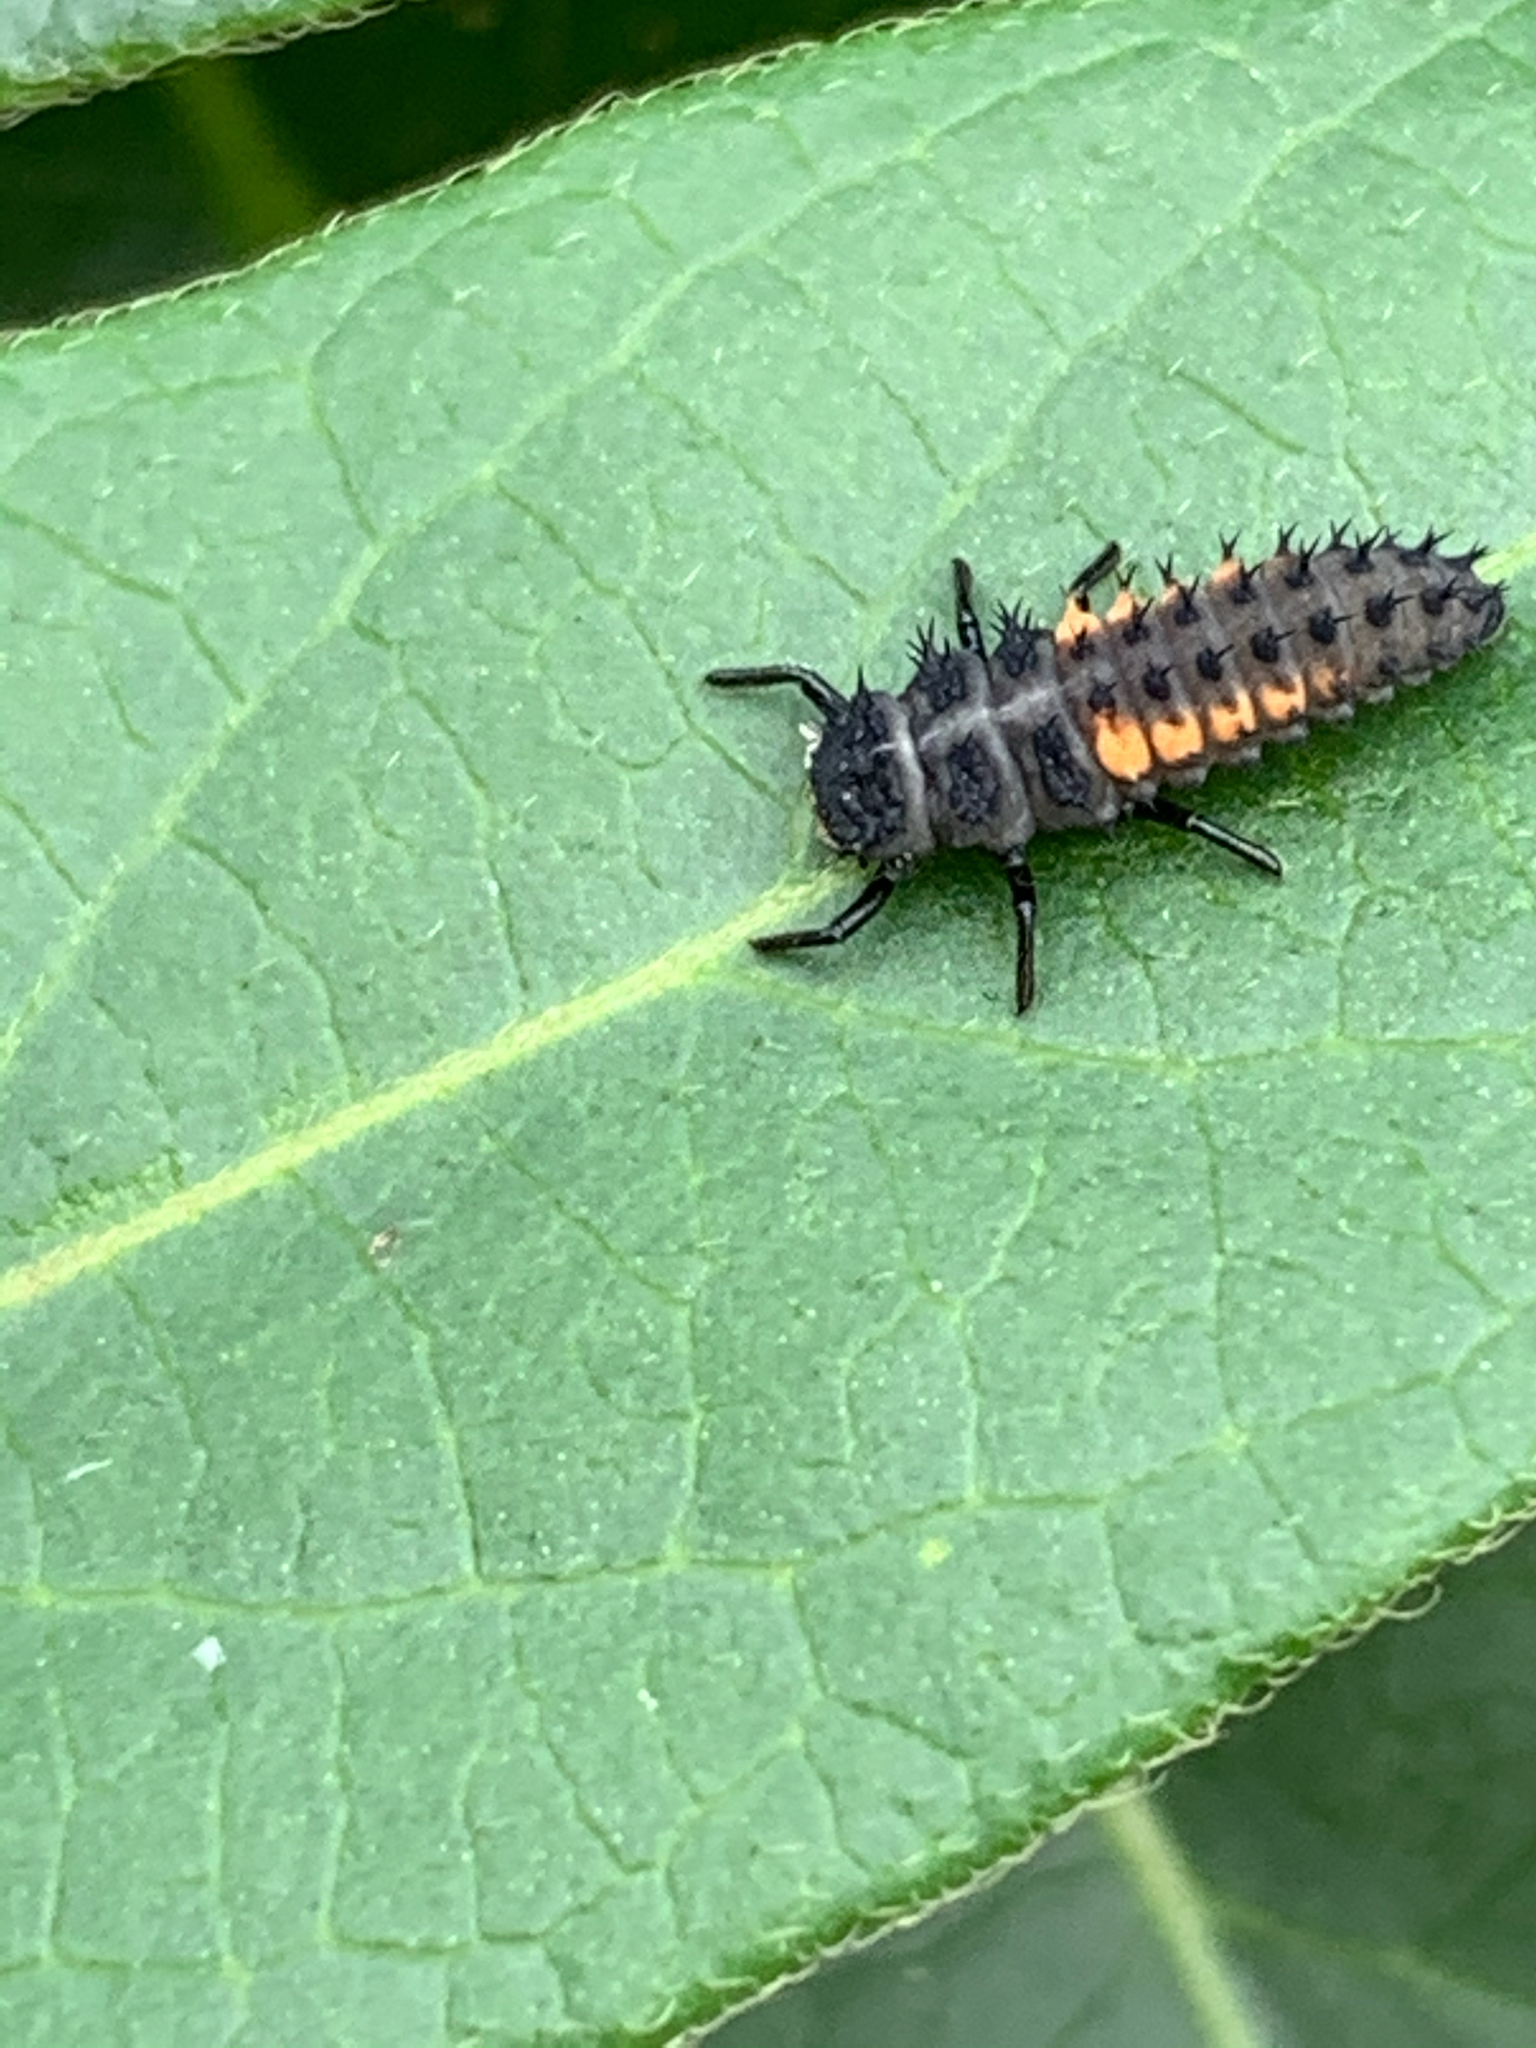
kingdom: Animalia
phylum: Arthropoda
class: Insecta
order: Coleoptera
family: Coccinellidae
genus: Harmonia
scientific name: Harmonia axyridis
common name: Harlequin ladybird
